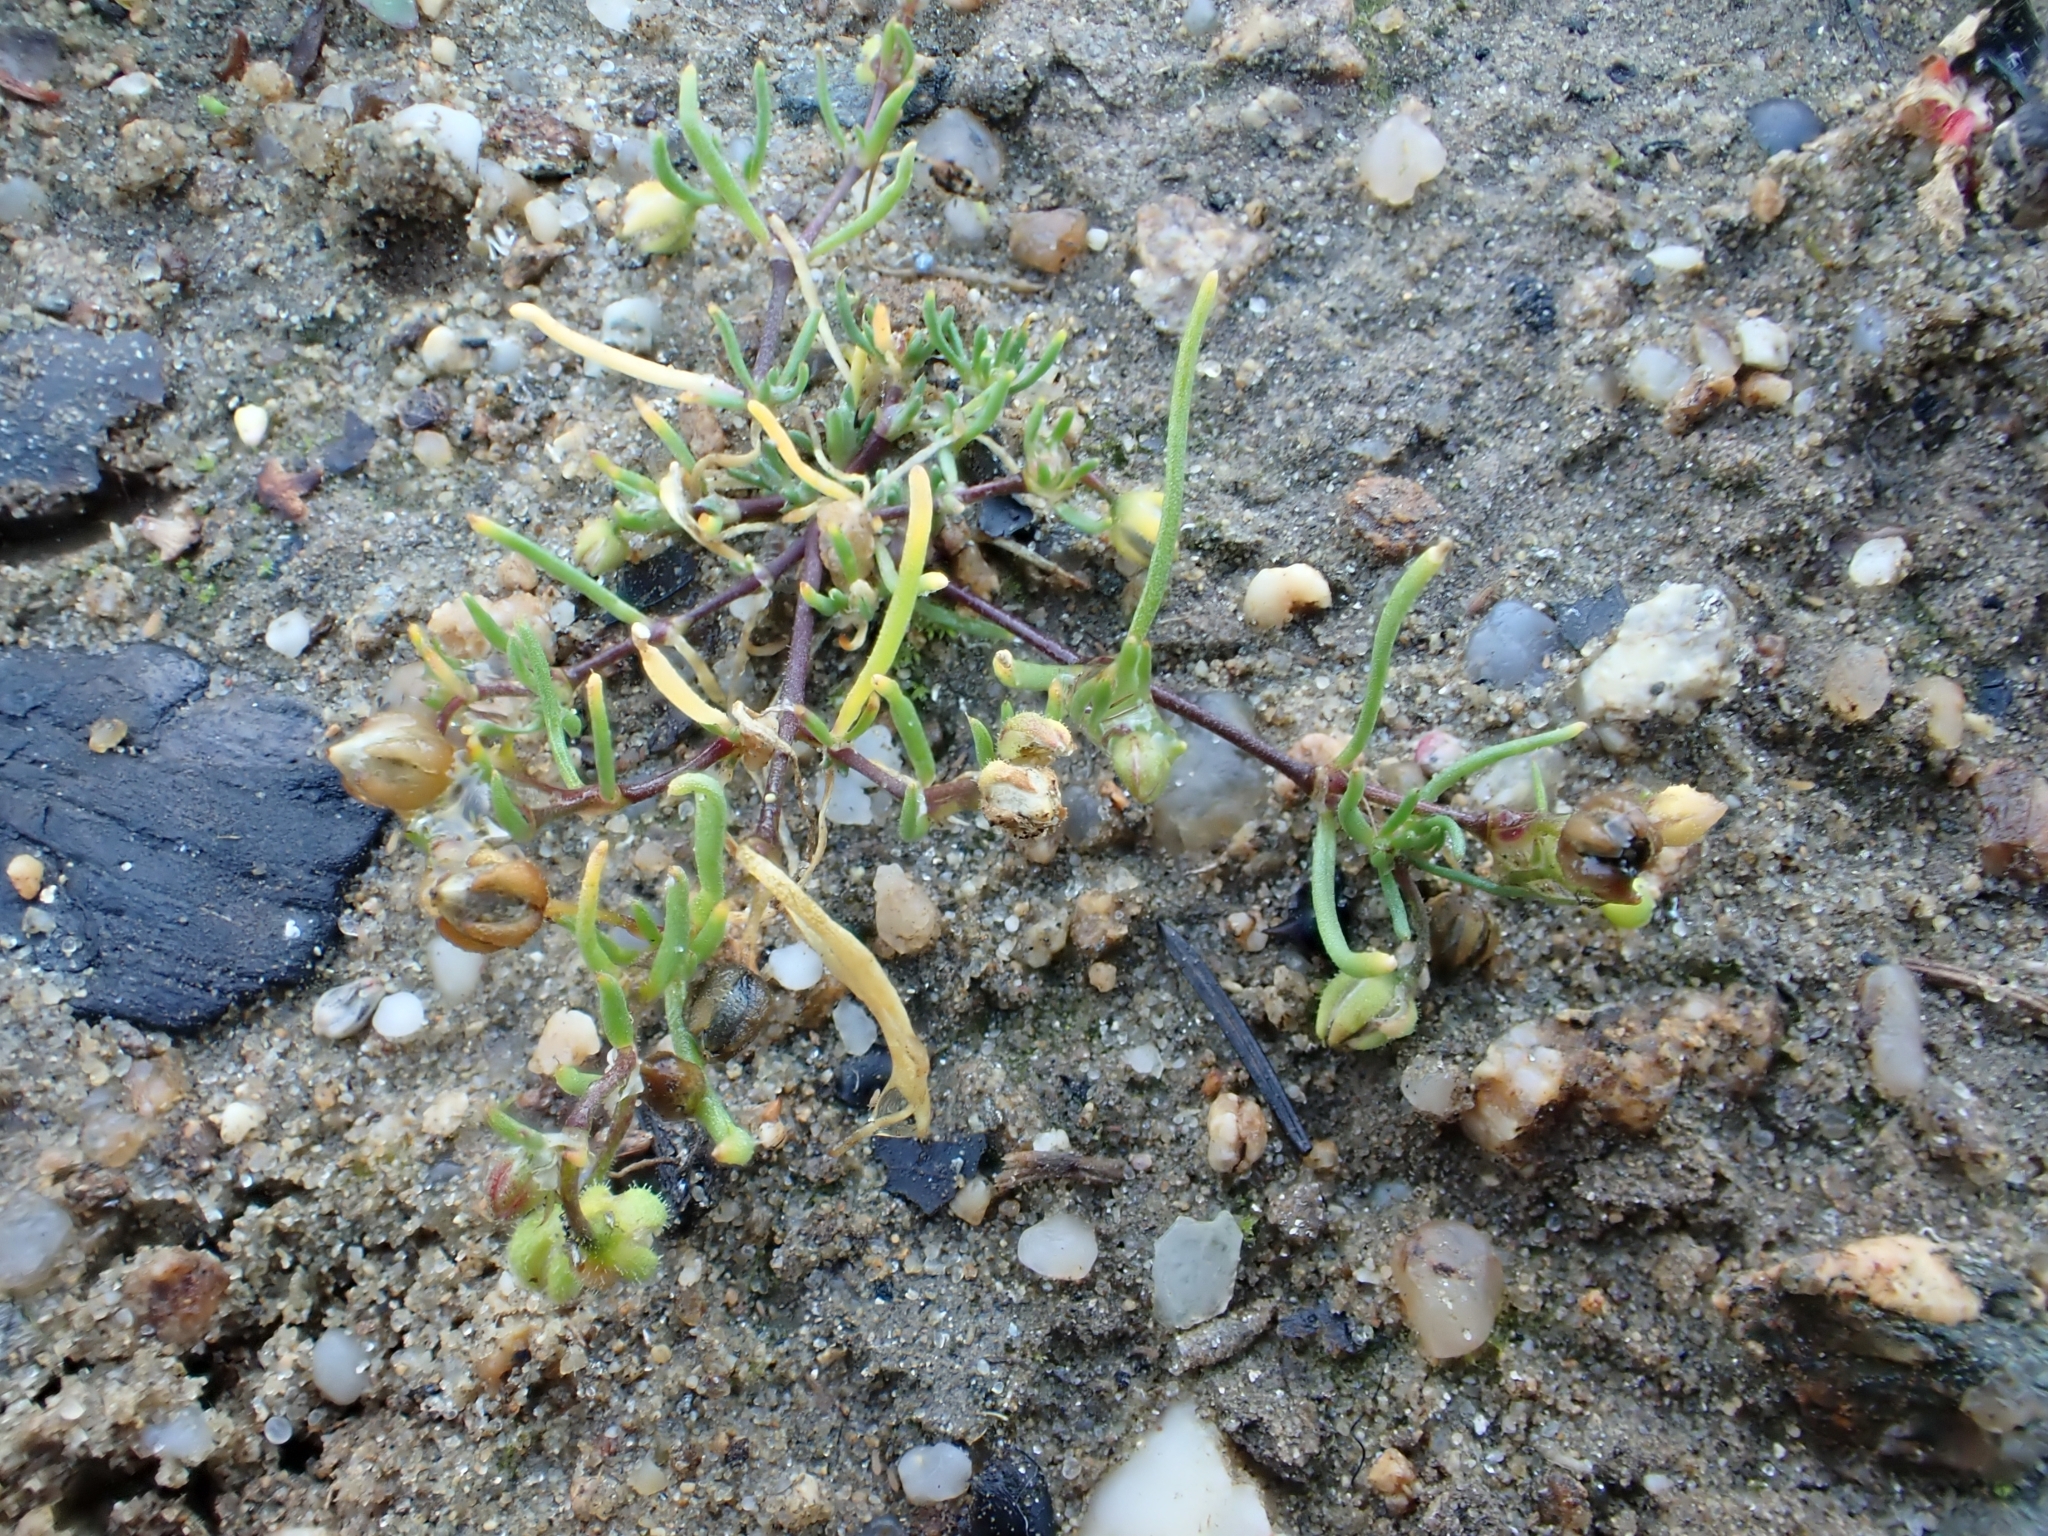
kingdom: Plantae
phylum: Tracheophyta
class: Magnoliopsida
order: Caryophyllales
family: Caryophyllaceae
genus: Spergularia
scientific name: Spergularia kurkae
